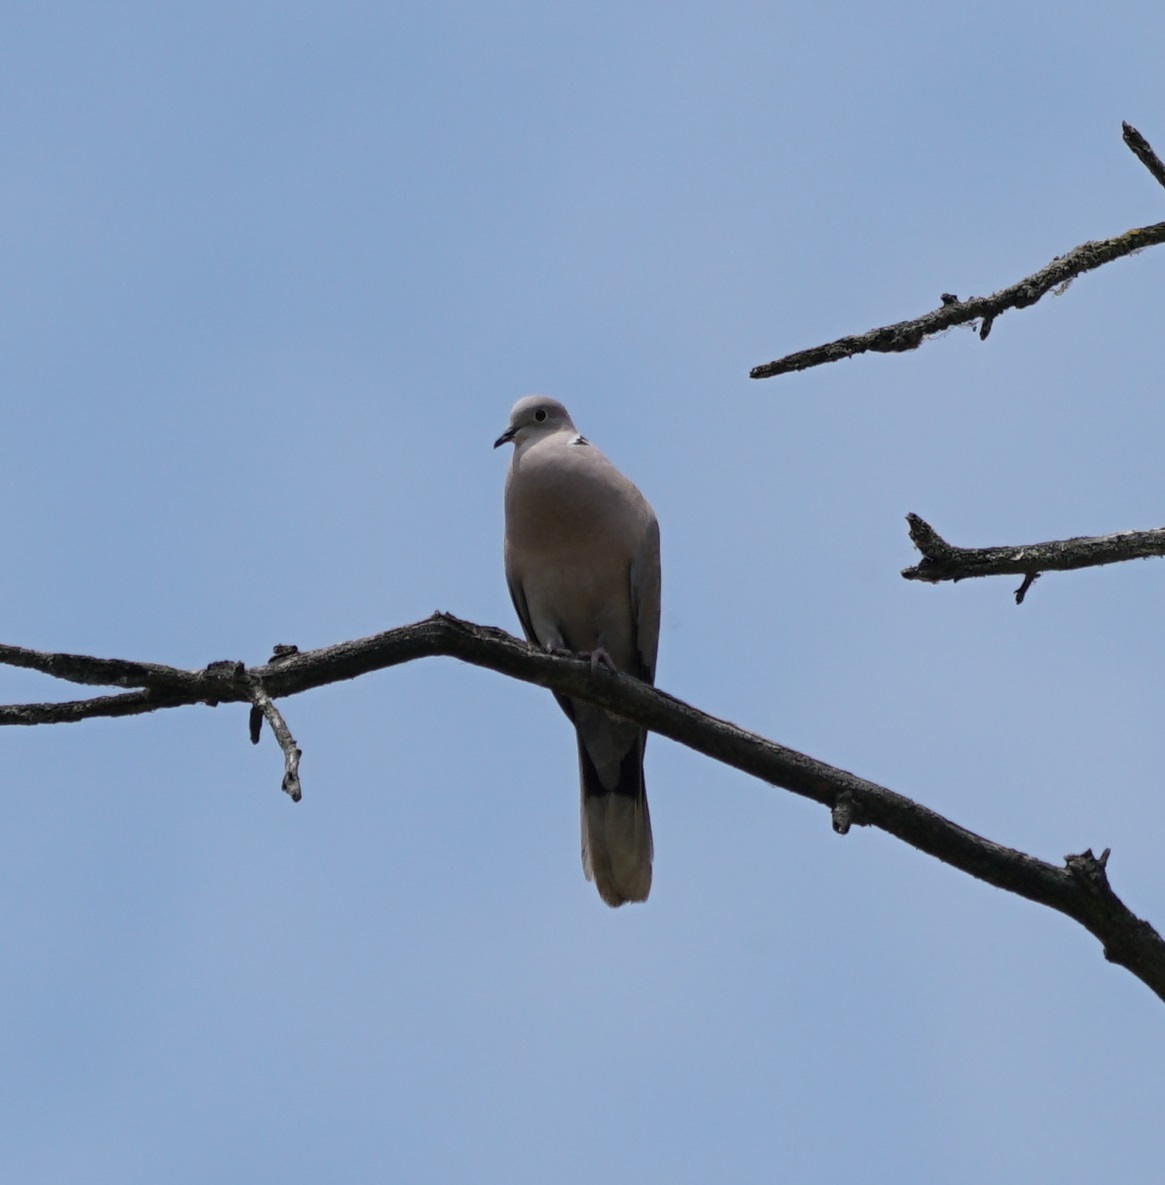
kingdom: Animalia
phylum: Chordata
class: Aves
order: Columbiformes
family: Columbidae
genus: Streptopelia
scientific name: Streptopelia decaocto
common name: Eurasian collared dove
